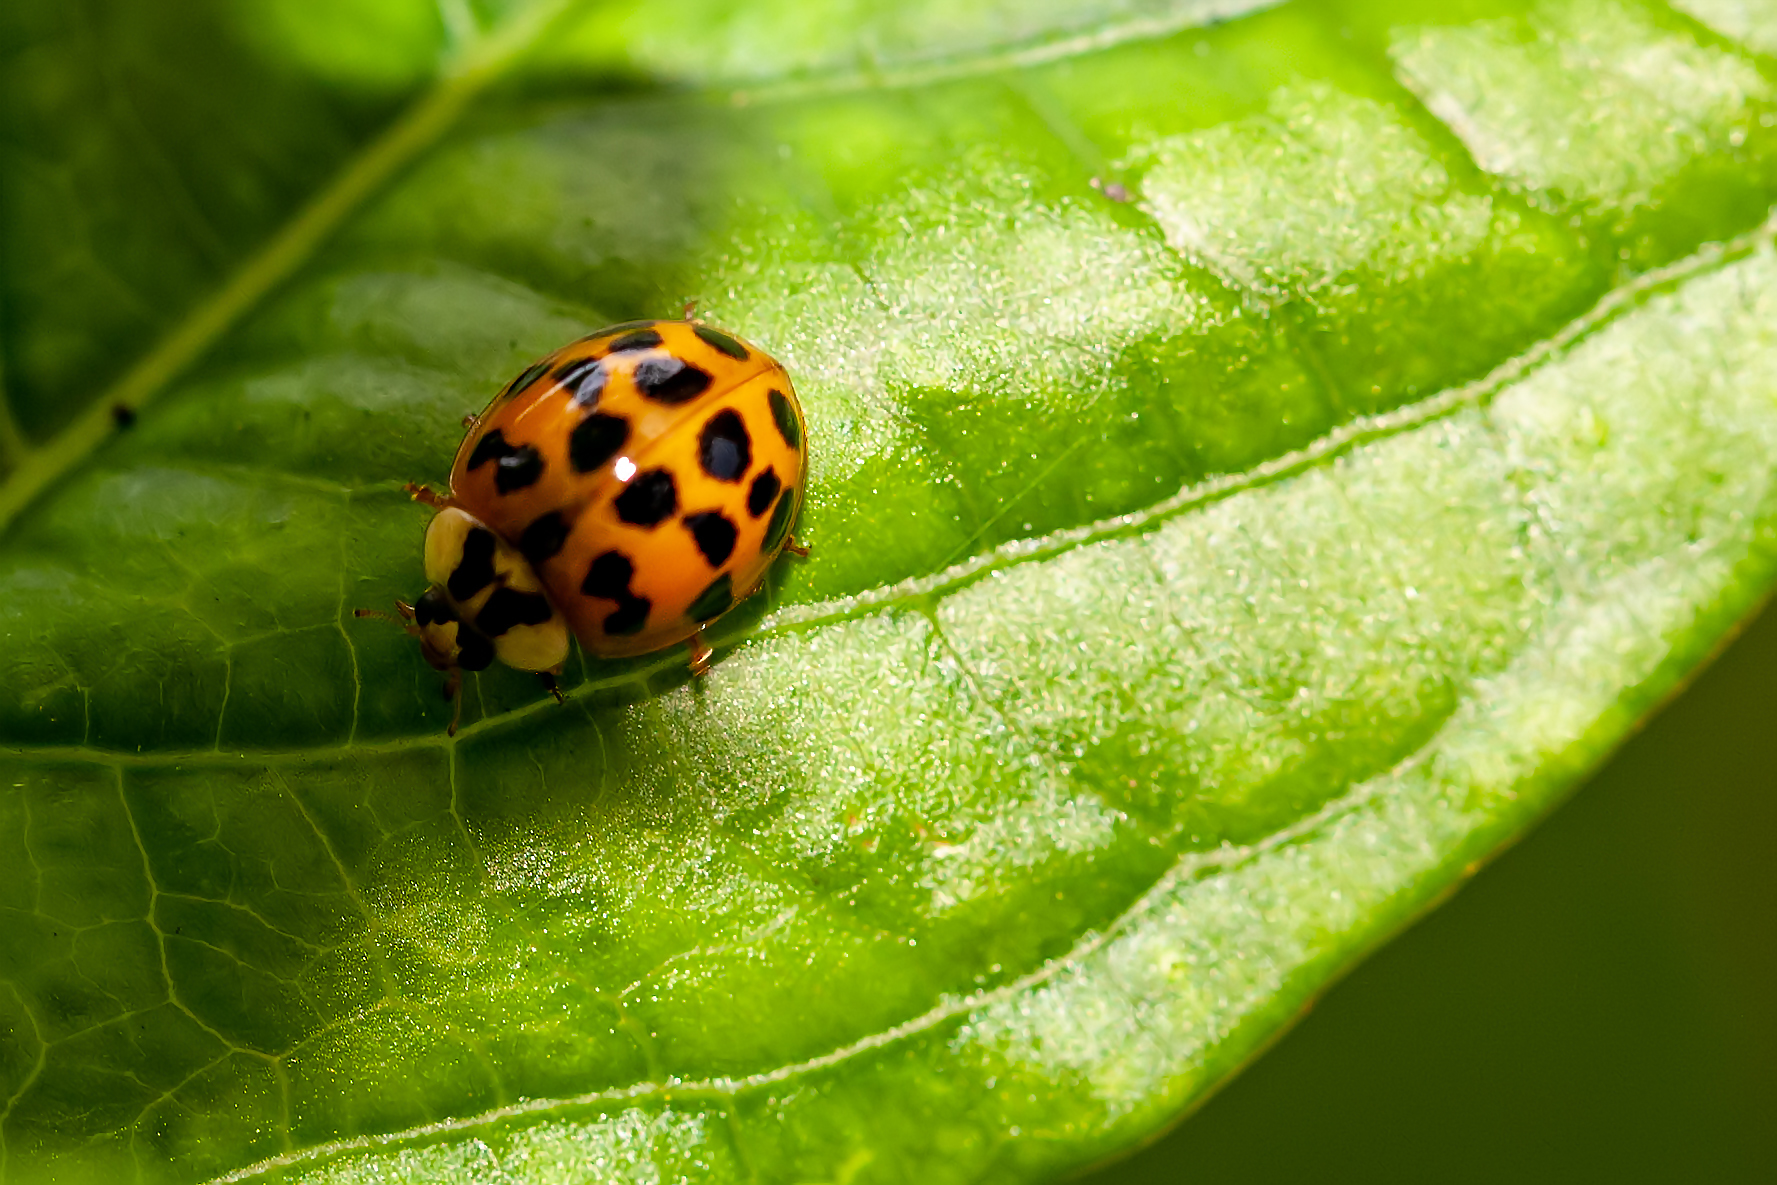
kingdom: Animalia
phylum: Arthropoda
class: Insecta
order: Coleoptera
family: Coccinellidae
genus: Harmonia
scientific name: Harmonia axyridis
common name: Harlequin ladybird
